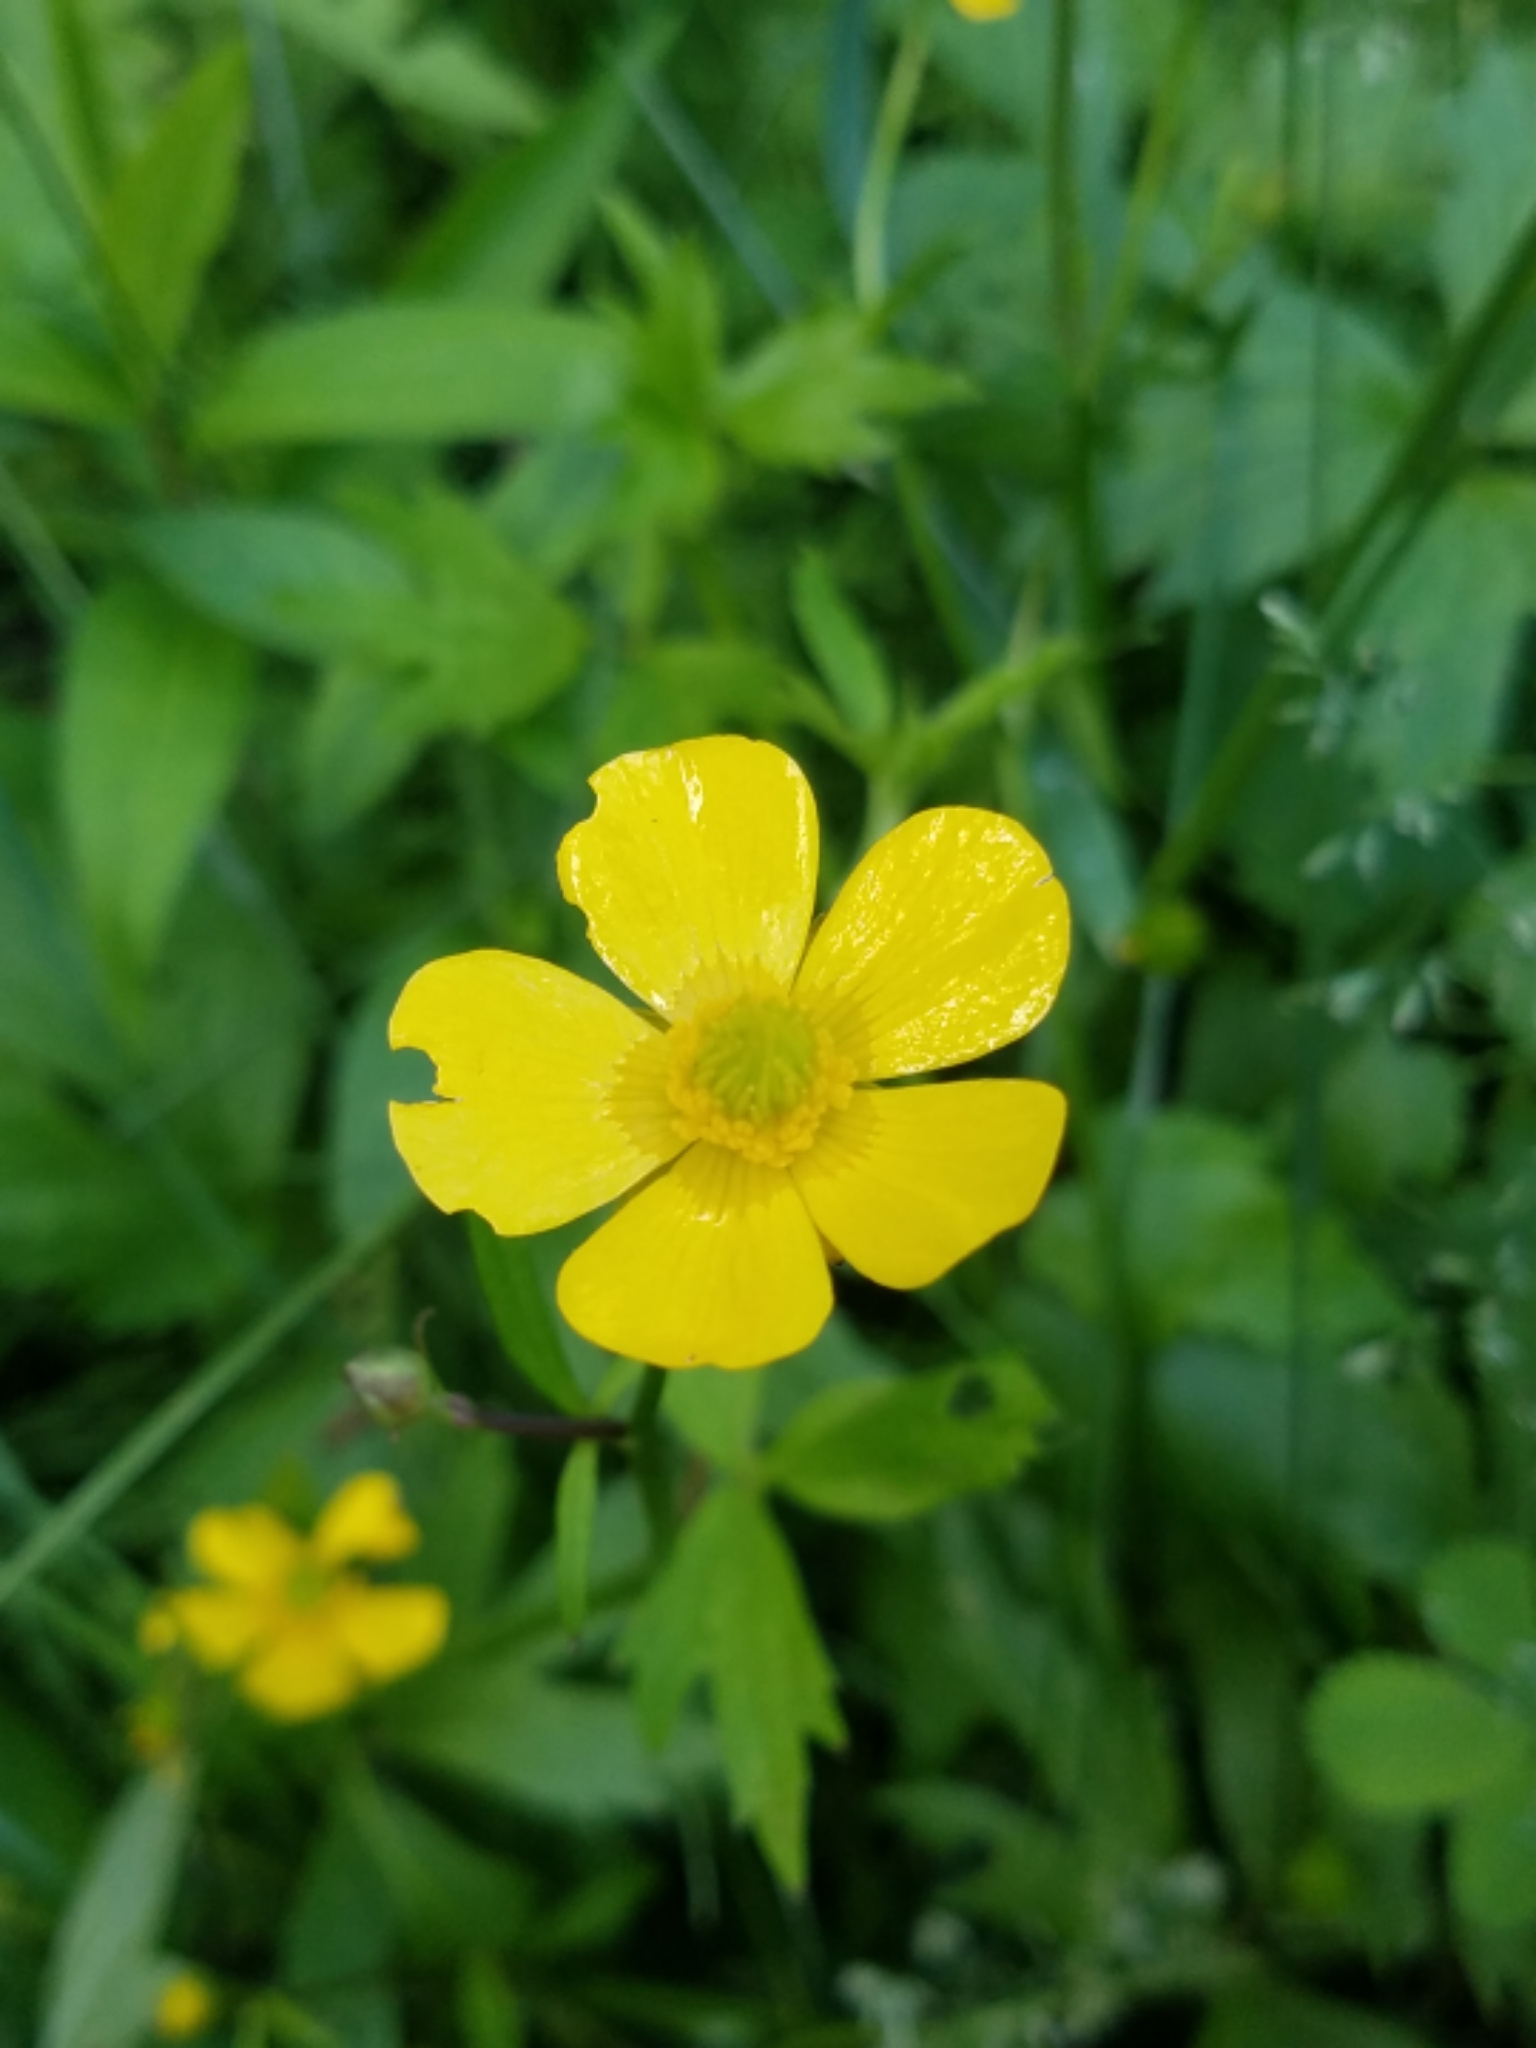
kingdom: Plantae
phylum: Tracheophyta
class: Magnoliopsida
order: Ranunculales
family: Ranunculaceae
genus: Ranunculus
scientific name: Ranunculus hispidus
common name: Bristly buttercup
